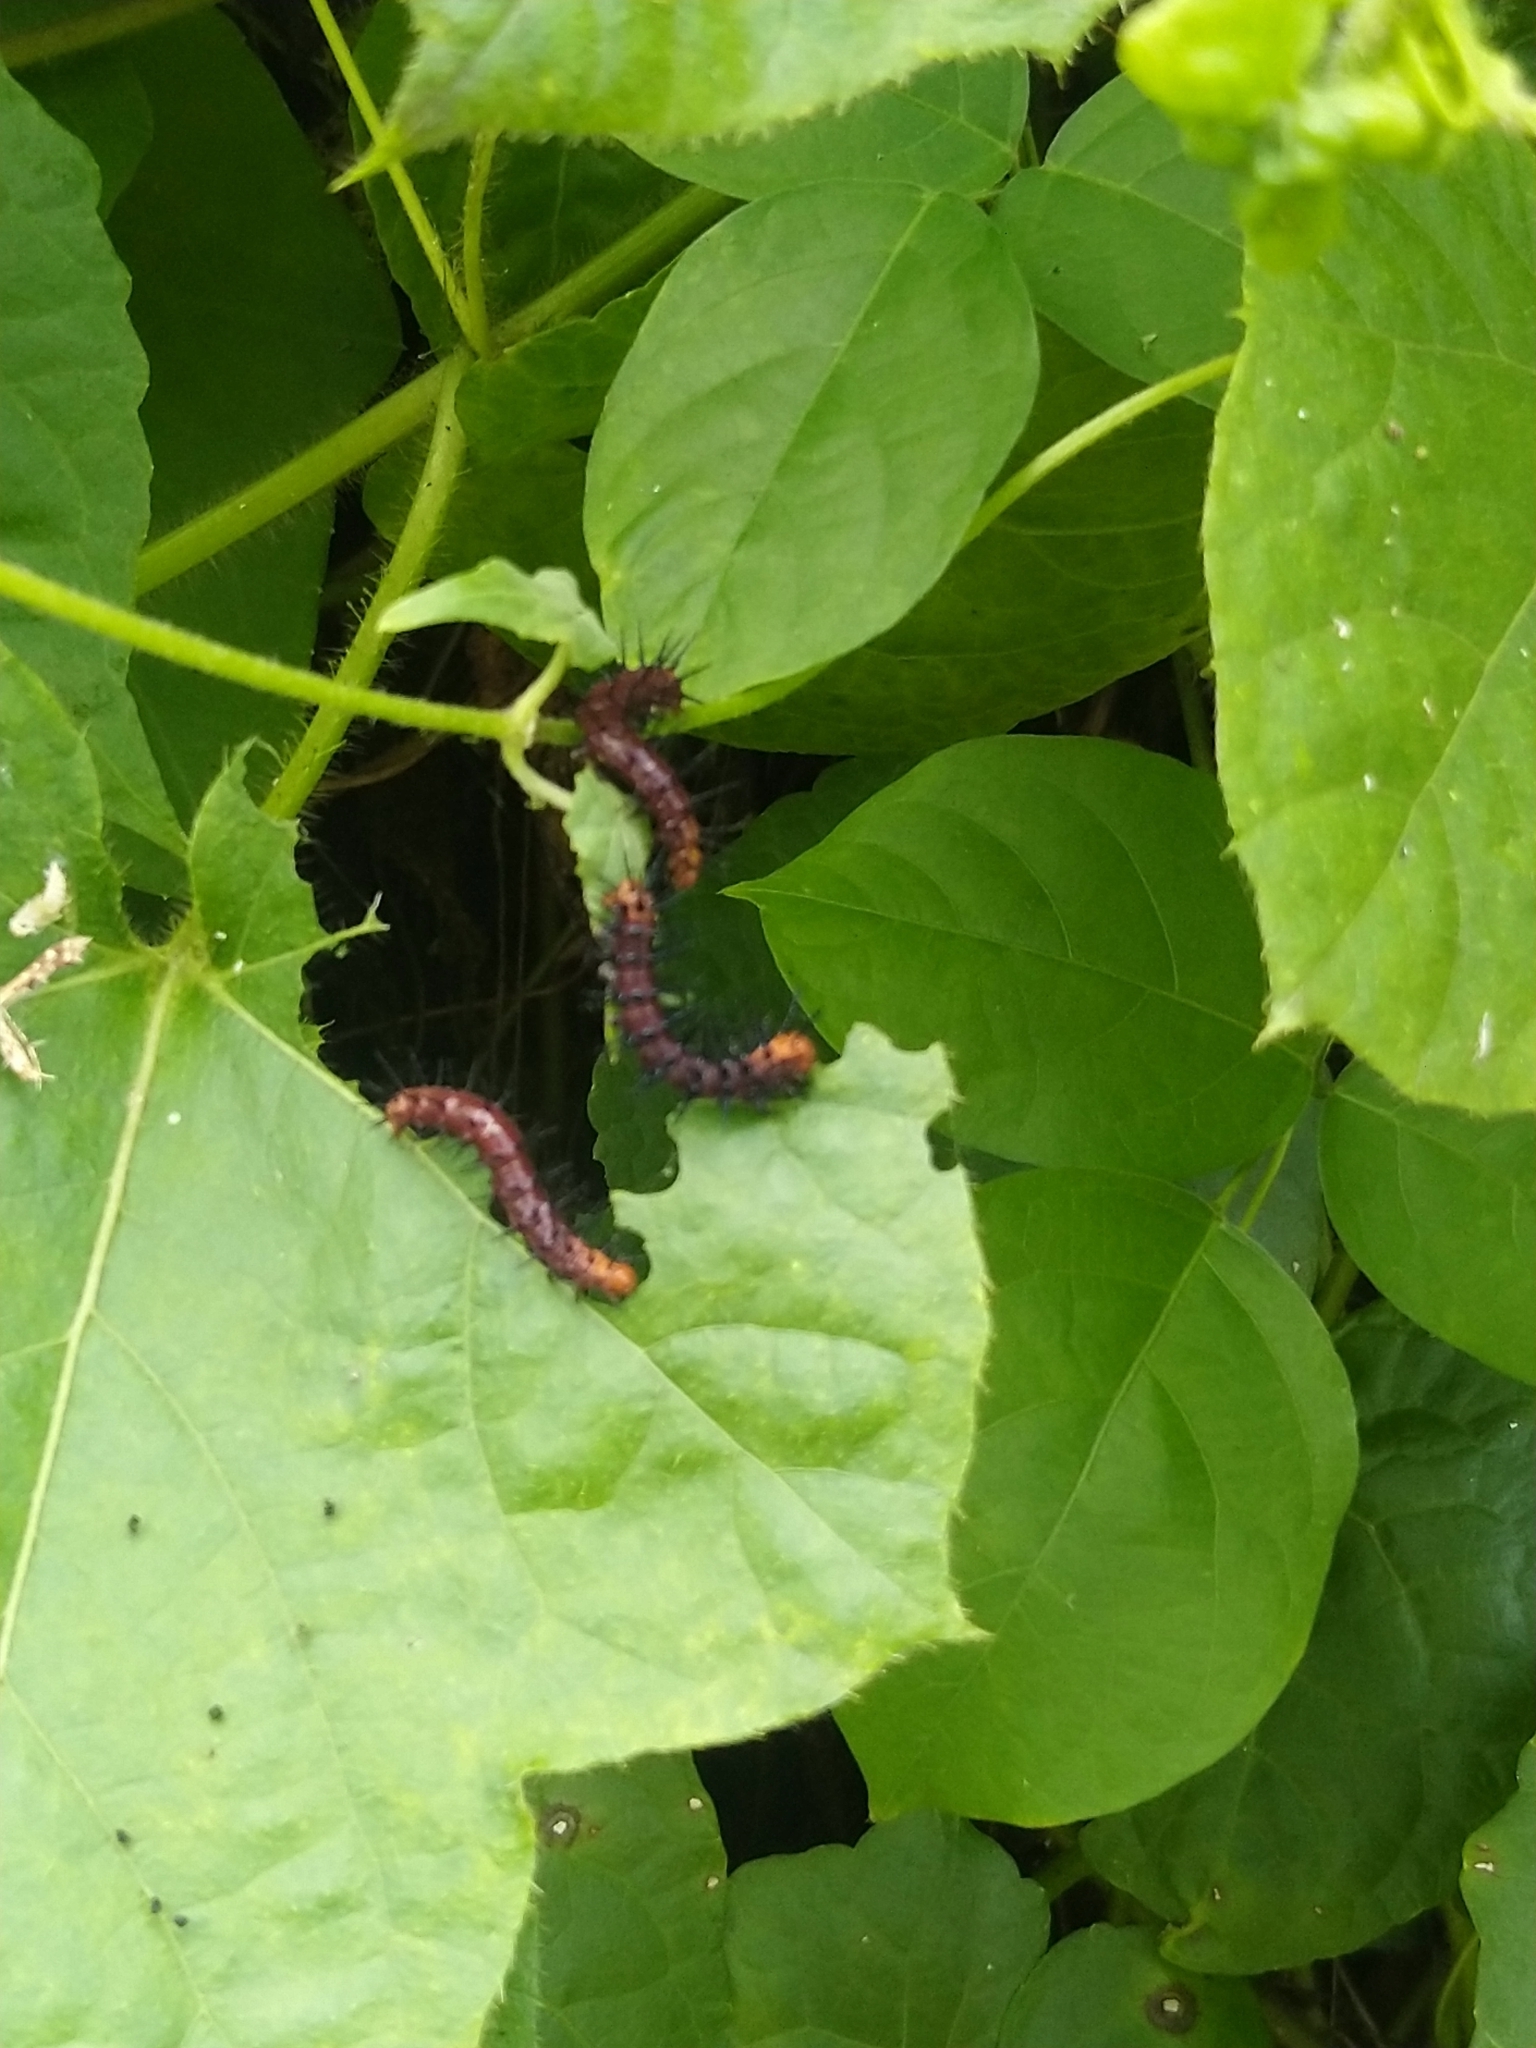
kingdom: Animalia
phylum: Arthropoda
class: Insecta
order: Lepidoptera
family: Nymphalidae
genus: Acraea
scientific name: Acraea terpsicore
